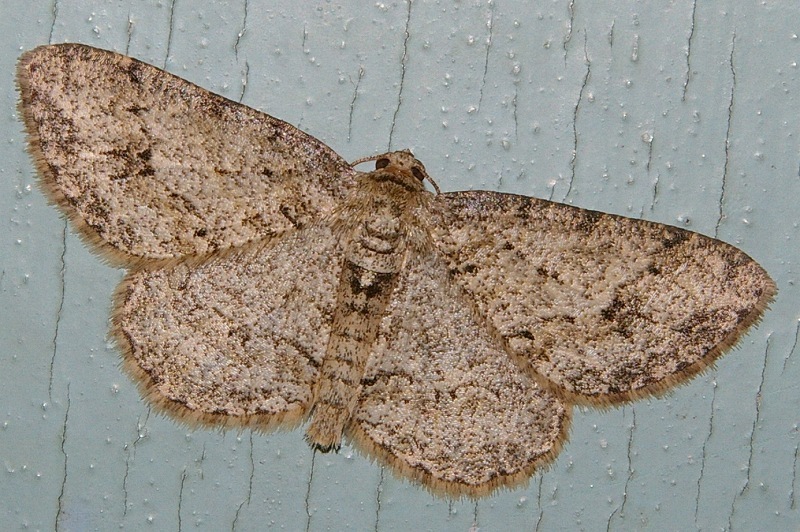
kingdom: Animalia
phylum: Arthropoda
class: Insecta
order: Lepidoptera
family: Geometridae
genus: Ectropis
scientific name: Ectropis obliqua
